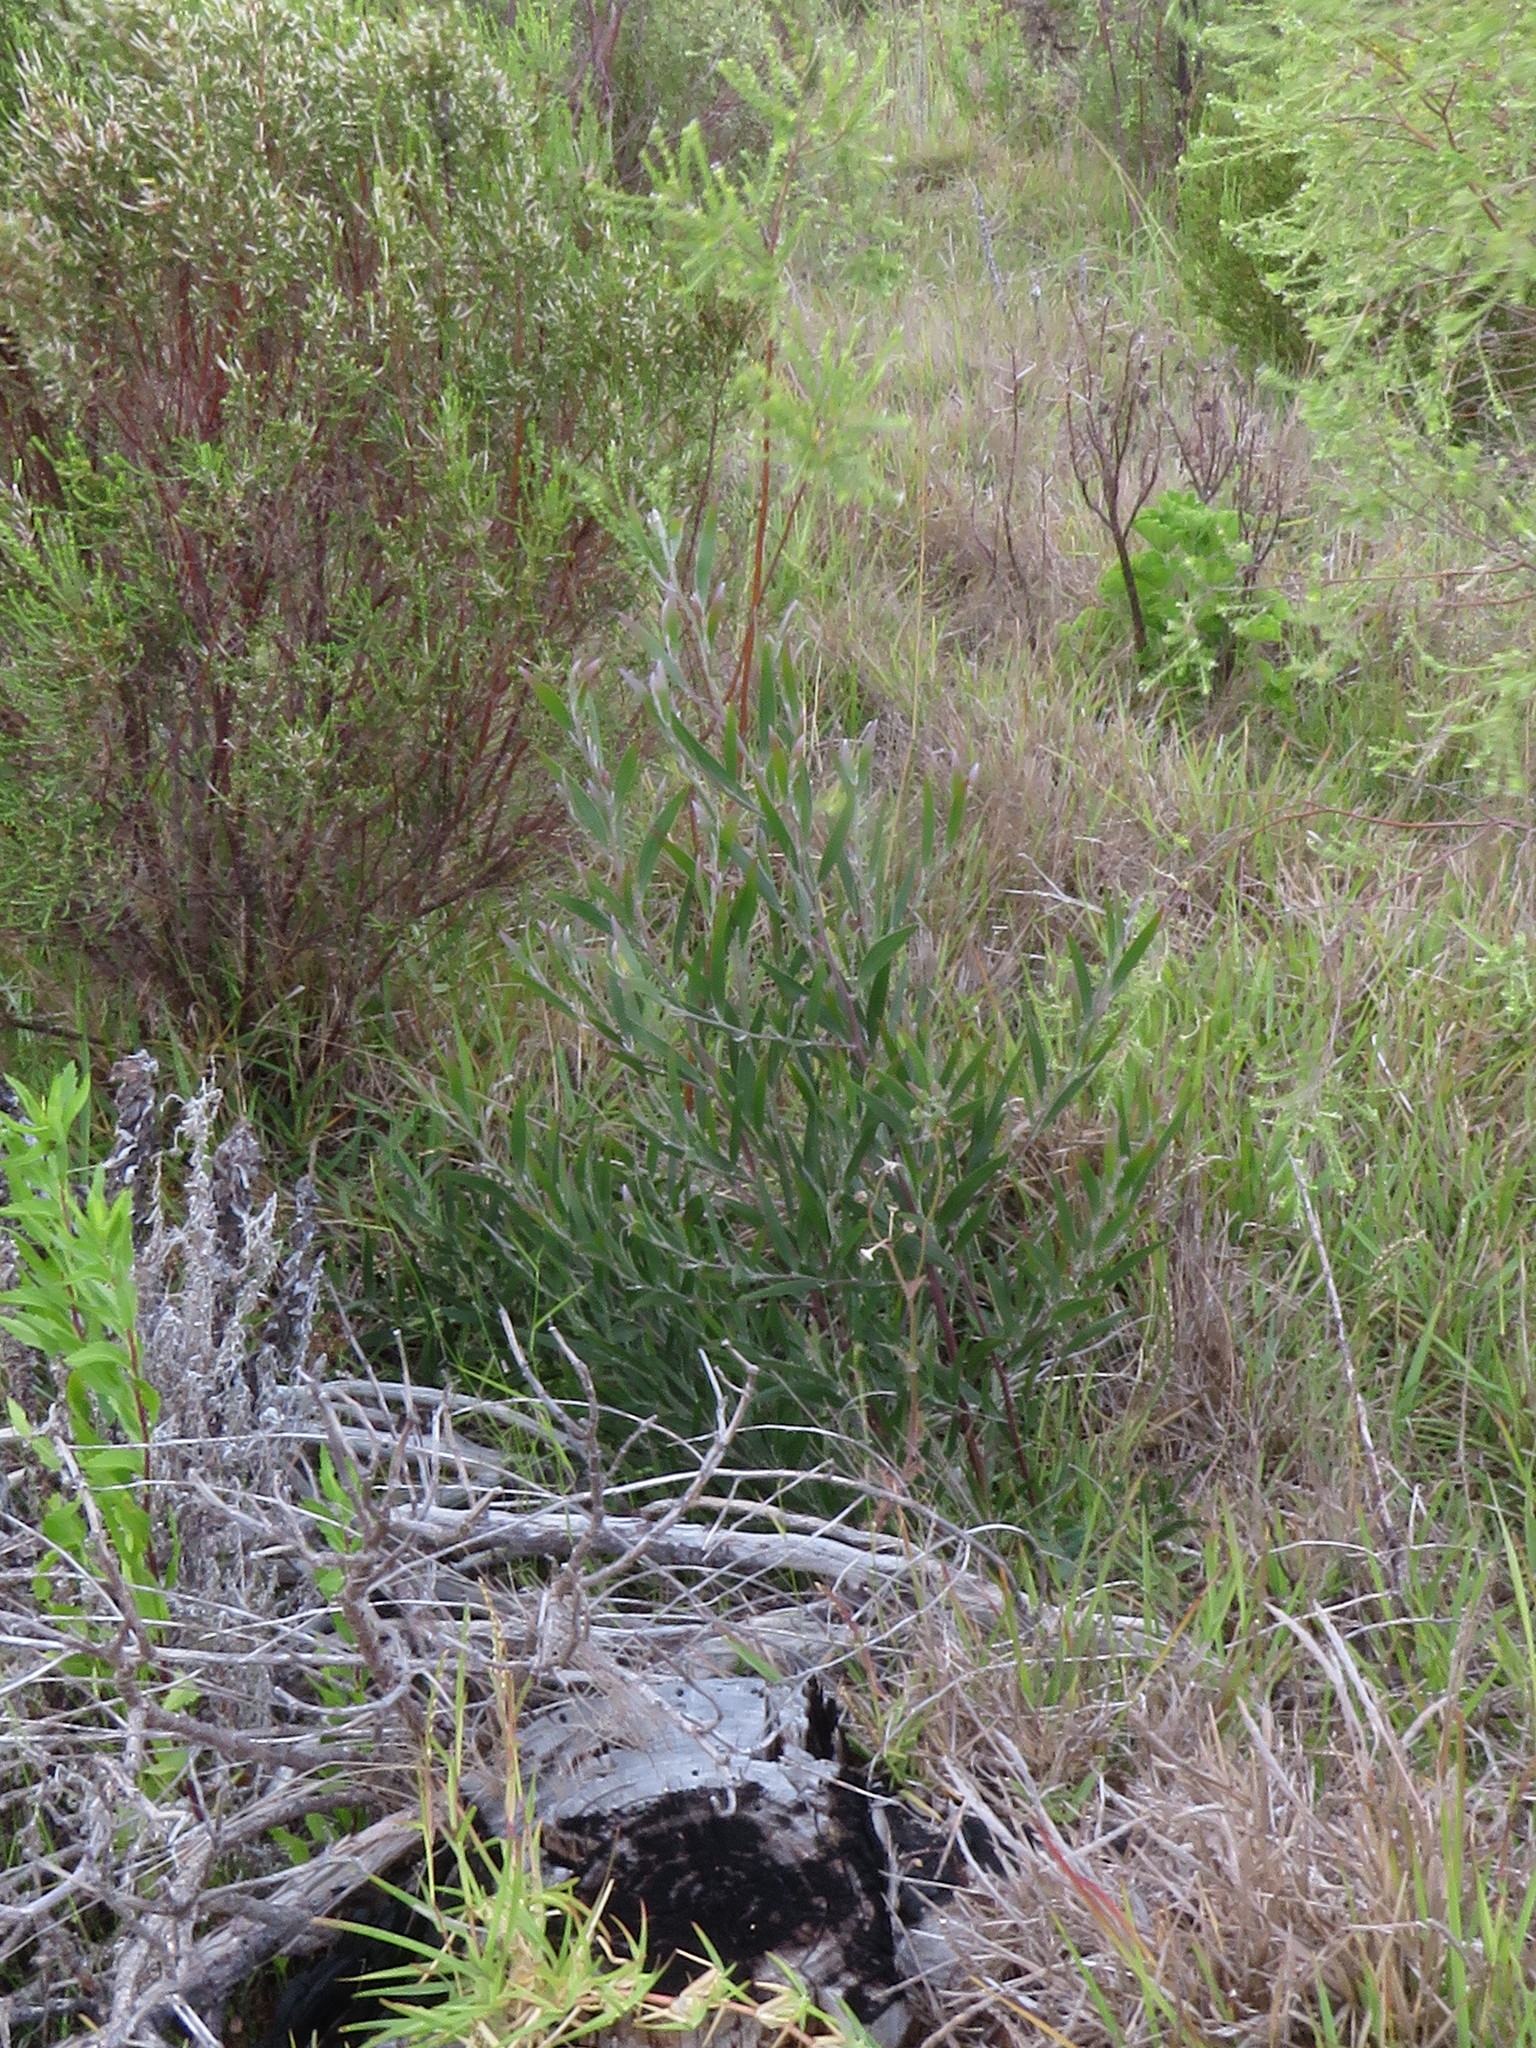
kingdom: Plantae
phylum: Tracheophyta
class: Magnoliopsida
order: Fabales
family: Fabaceae
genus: Acacia
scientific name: Acacia melanoxylon
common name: Blackwood
